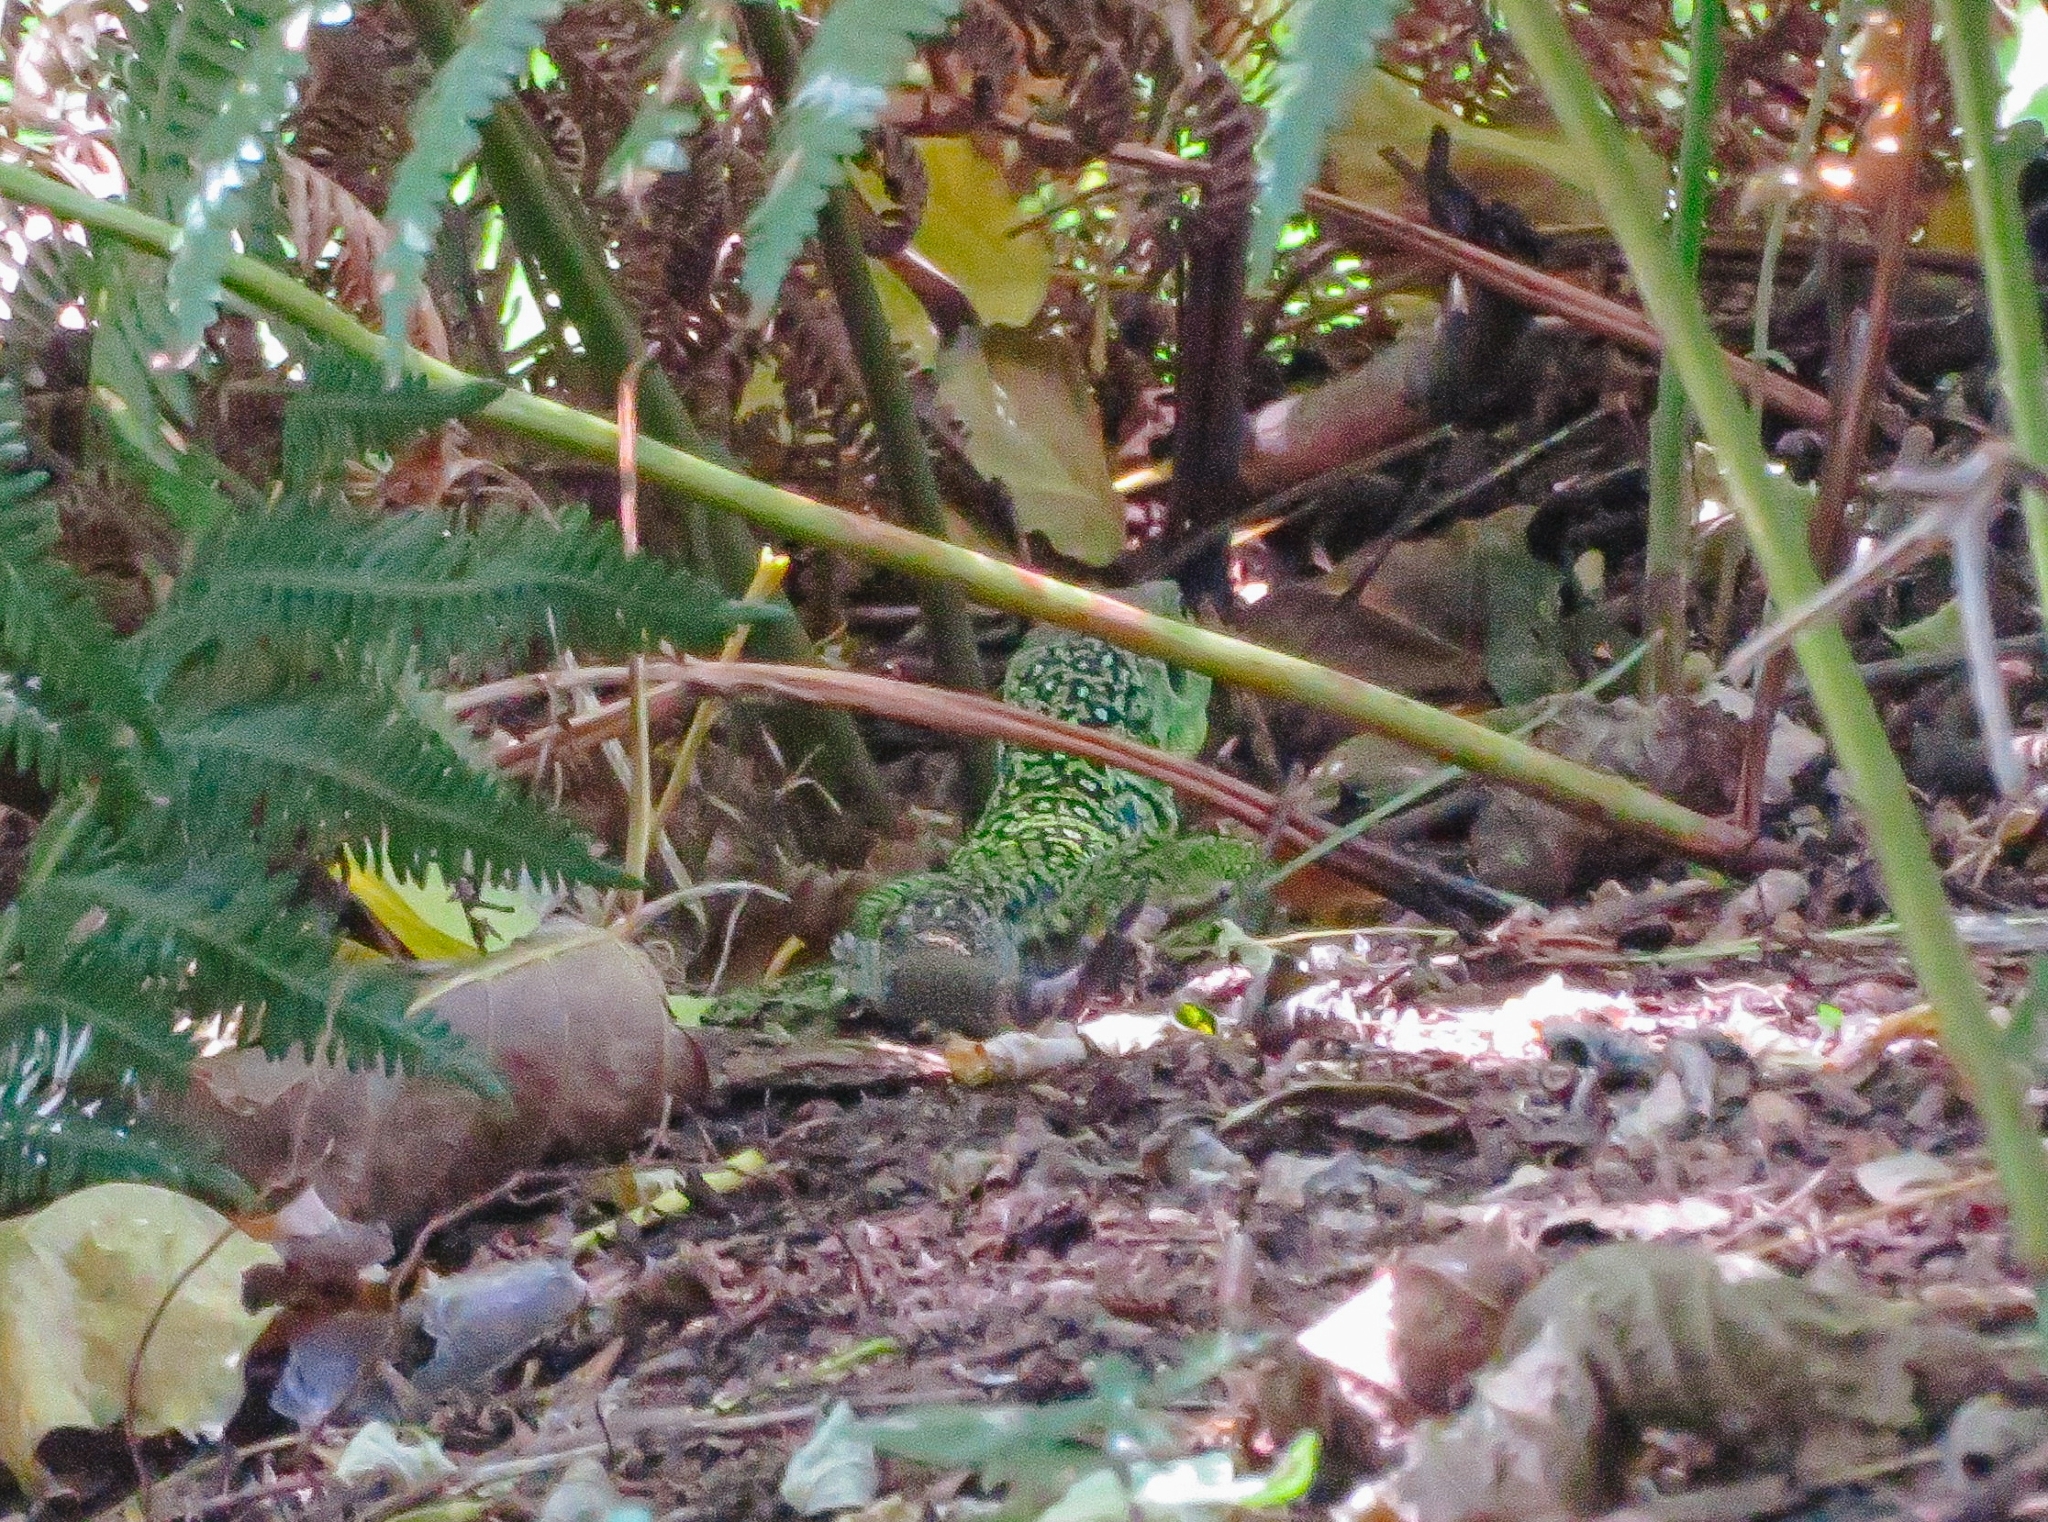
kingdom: Animalia
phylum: Chordata
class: Squamata
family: Lacertidae
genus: Timon
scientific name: Timon lepidus
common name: Ocellated lizard
